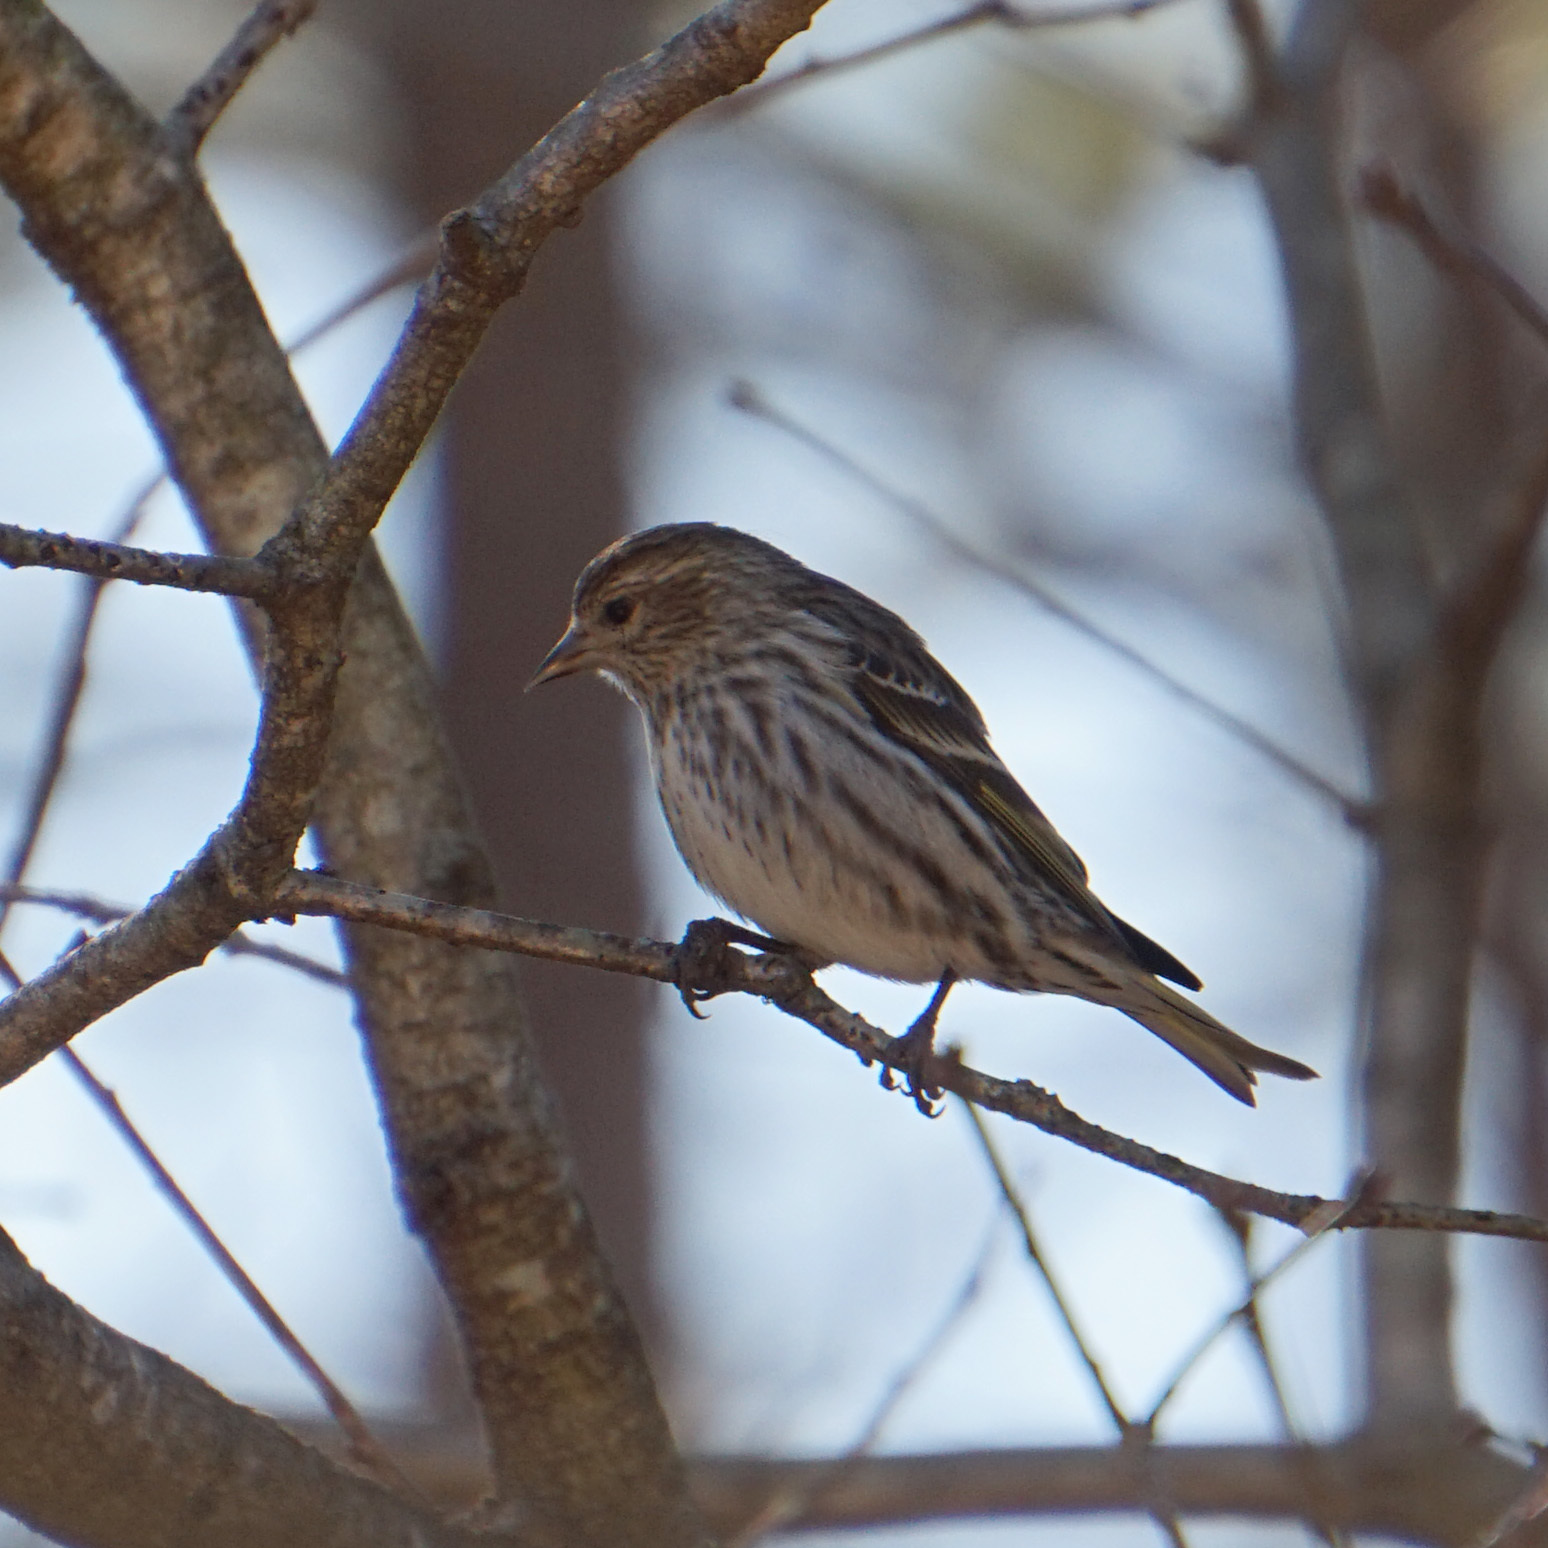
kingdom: Animalia
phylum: Chordata
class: Aves
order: Passeriformes
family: Fringillidae
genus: Spinus
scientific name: Spinus pinus
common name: Pine siskin
